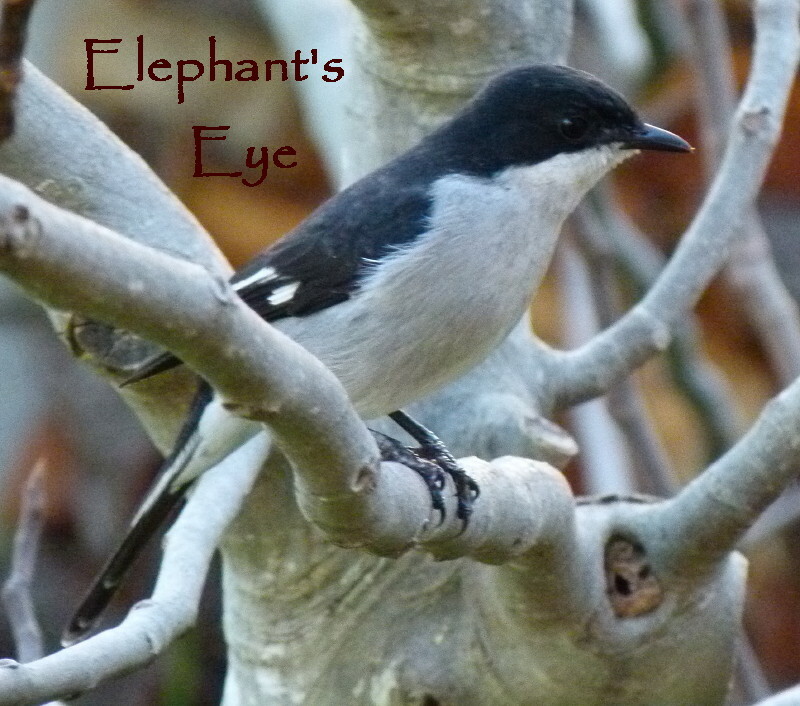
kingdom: Animalia
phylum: Chordata
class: Aves
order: Passeriformes
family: Muscicapidae
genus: Sigelus
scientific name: Sigelus silens
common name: Fiscal flycatcher
